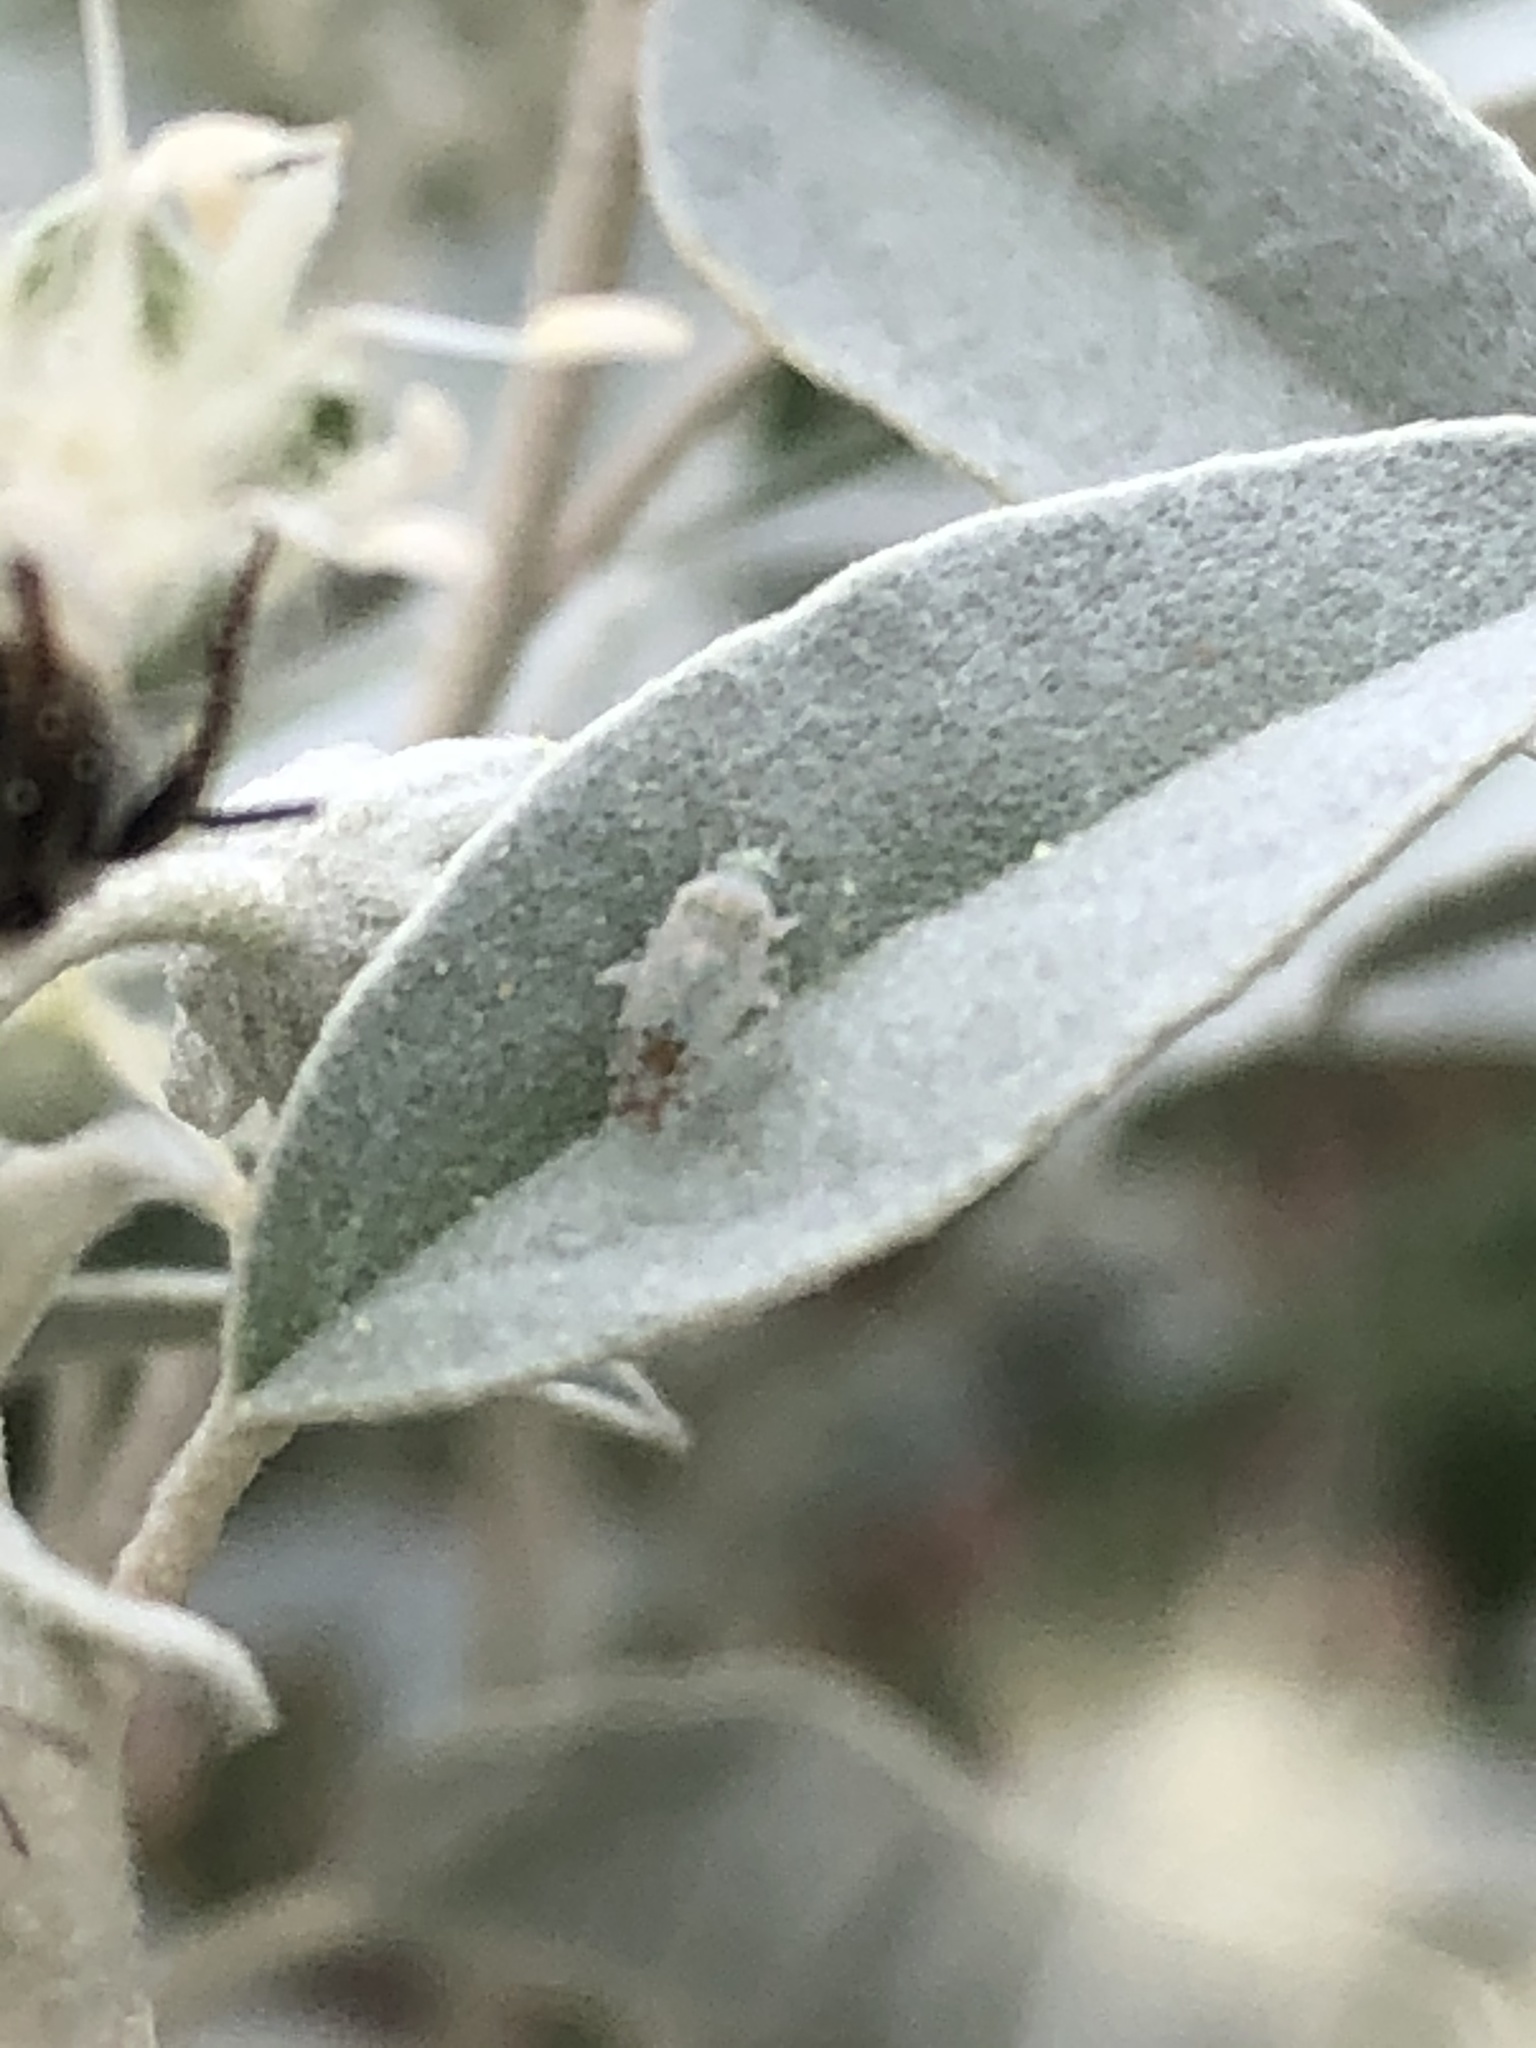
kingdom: Animalia
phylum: Arthropoda
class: Insecta
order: Hemiptera
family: Miridae
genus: Pseudatomoscelis
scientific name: Pseudatomoscelis seriatus
